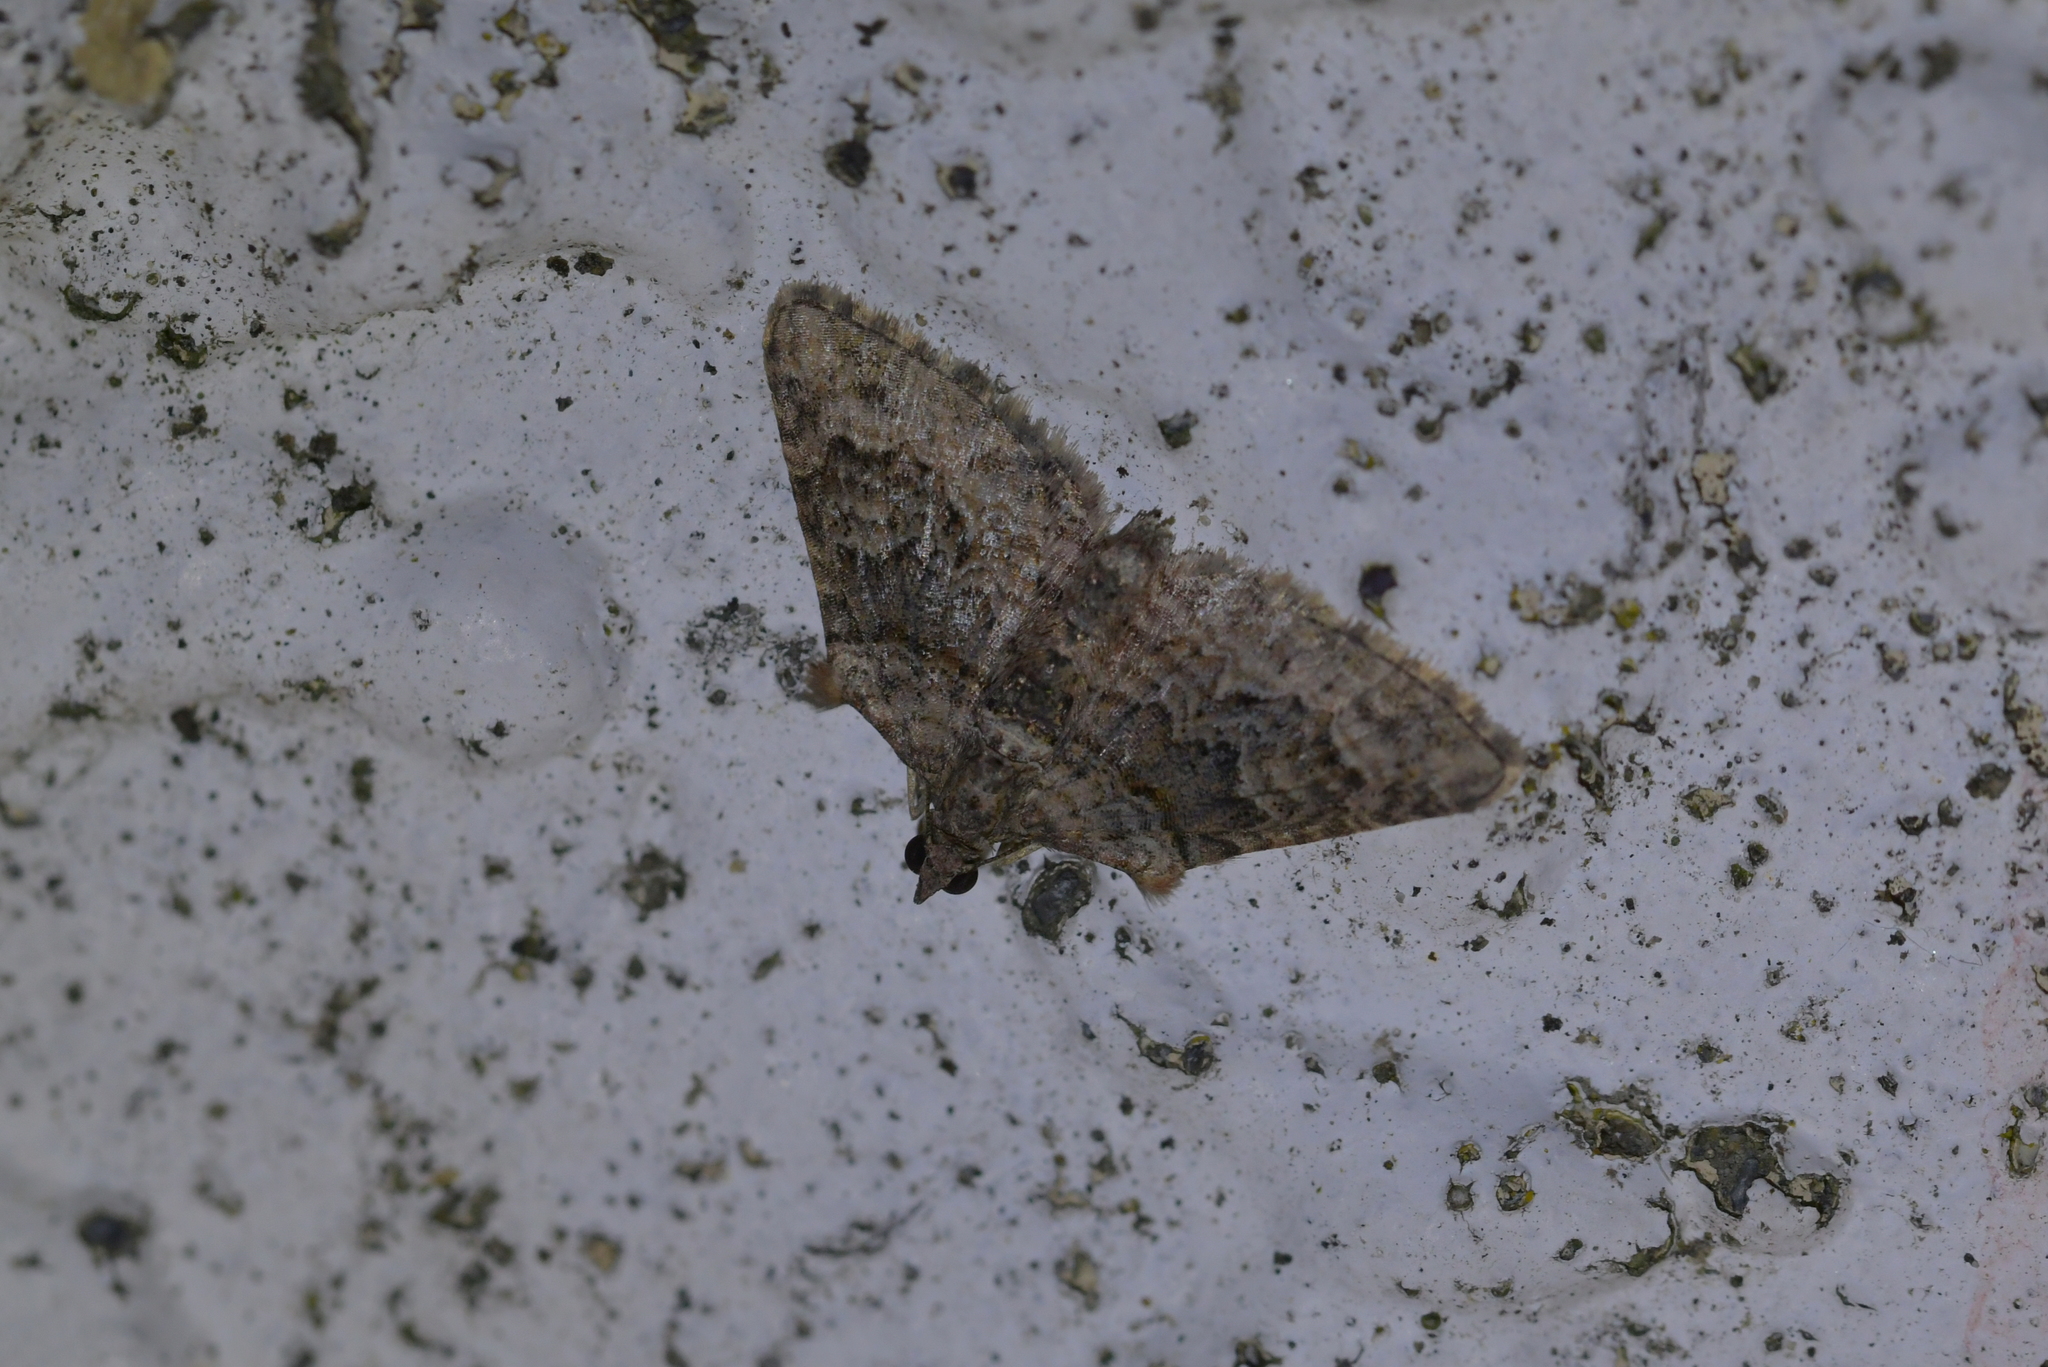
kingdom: Animalia
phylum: Arthropoda
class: Insecta
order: Lepidoptera
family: Geometridae
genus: Phrissogonus
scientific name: Phrissogonus laticostata
